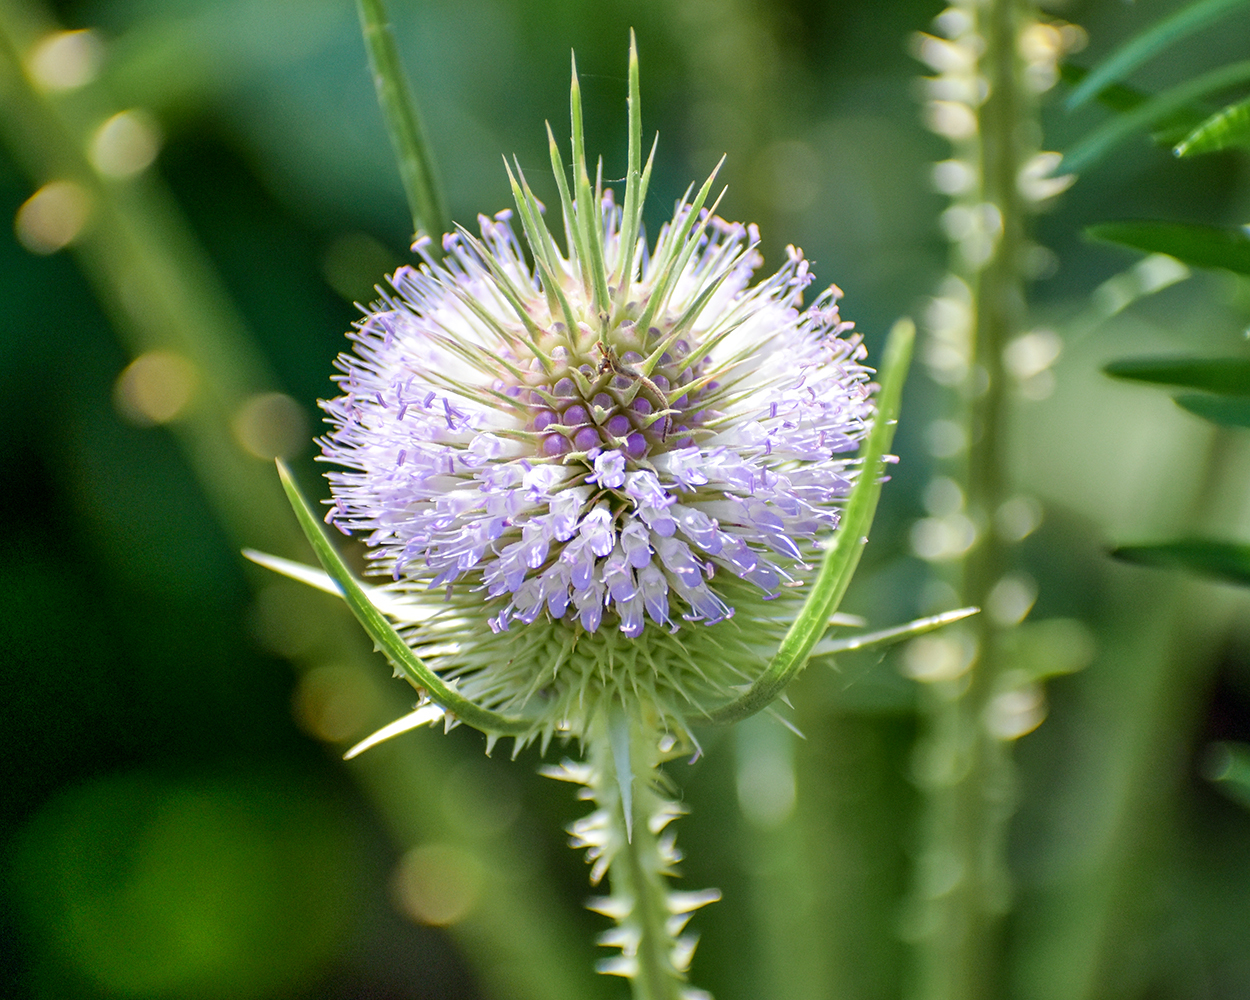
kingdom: Plantae
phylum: Tracheophyta
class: Magnoliopsida
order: Dipsacales
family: Caprifoliaceae
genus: Dipsacus
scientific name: Dipsacus fullonum
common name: Teasel
